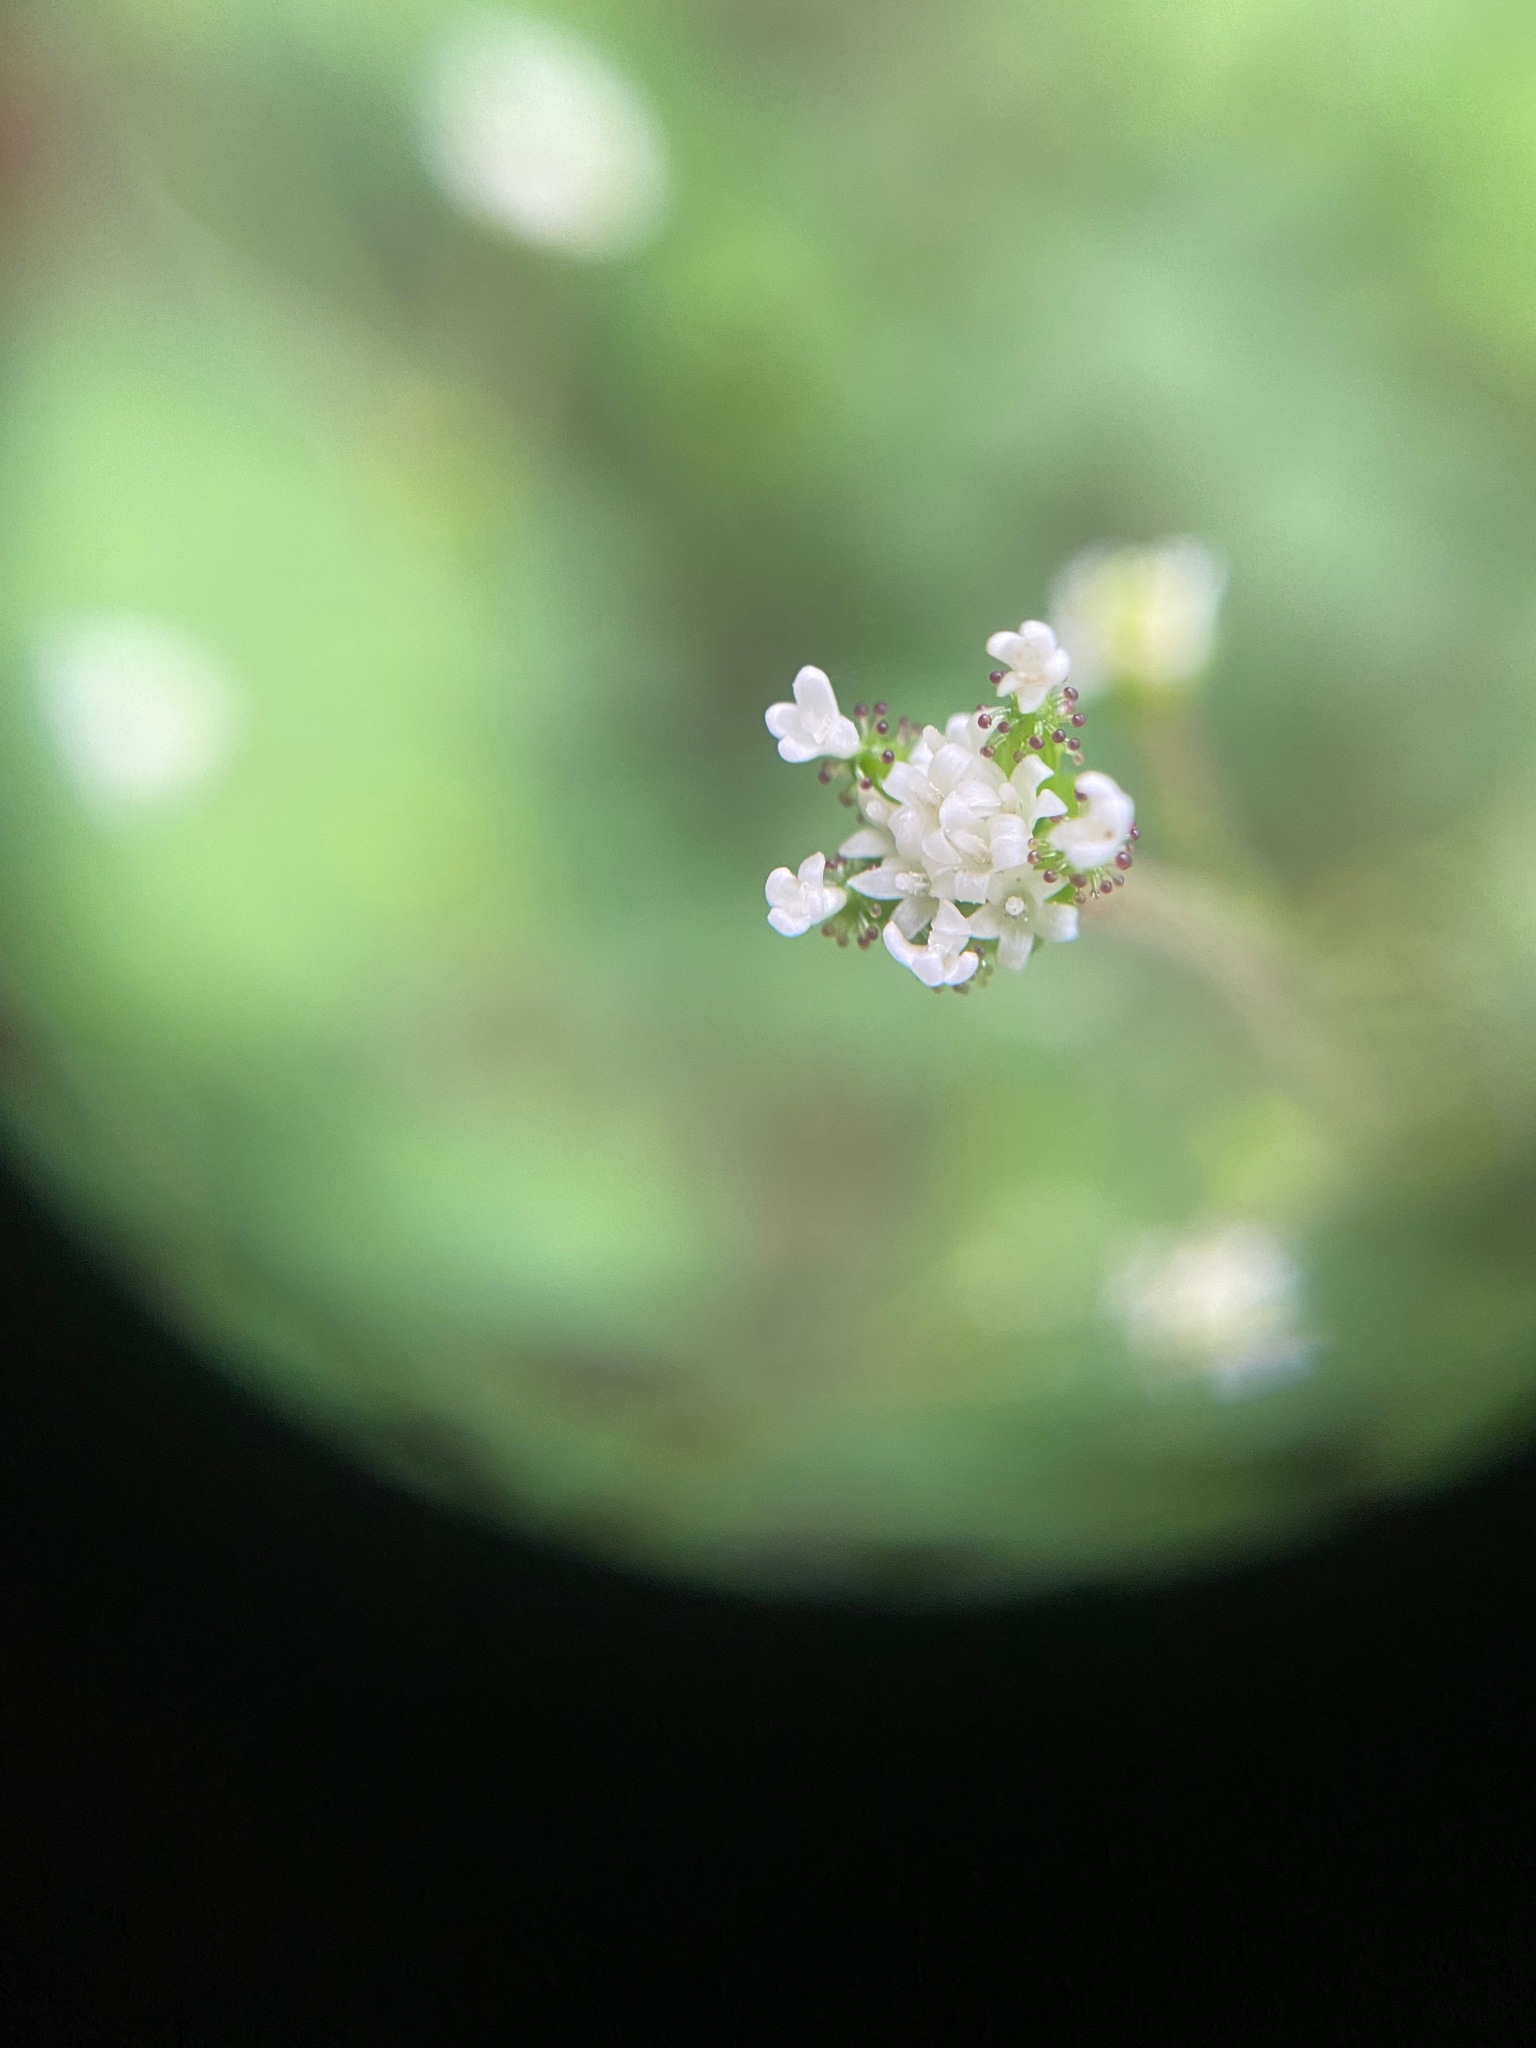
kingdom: Plantae
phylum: Tracheophyta
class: Magnoliopsida
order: Asterales
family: Asteraceae
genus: Adenocaulon
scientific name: Adenocaulon bicolor
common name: Trailplant
